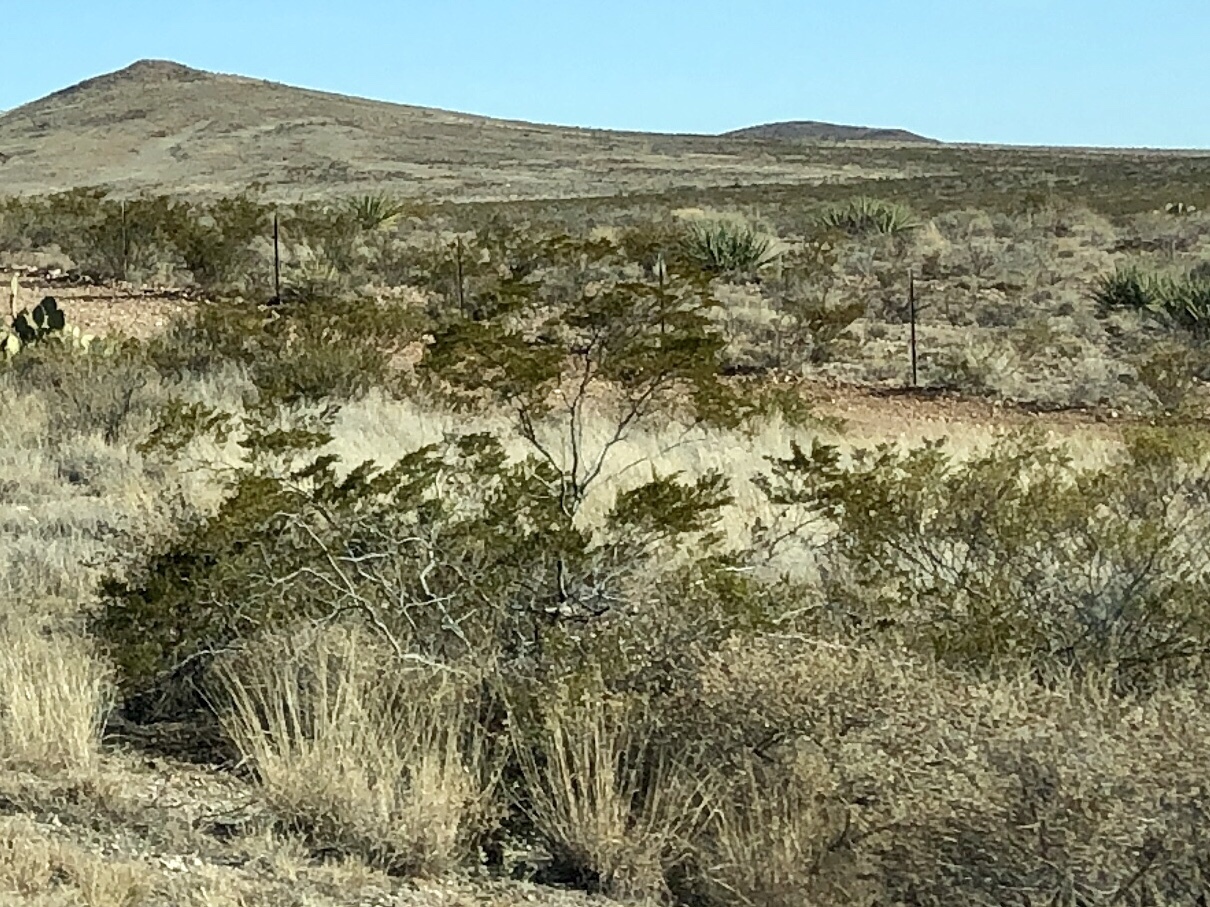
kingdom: Plantae
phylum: Tracheophyta
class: Magnoliopsida
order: Zygophyllales
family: Zygophyllaceae
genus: Larrea
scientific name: Larrea tridentata
